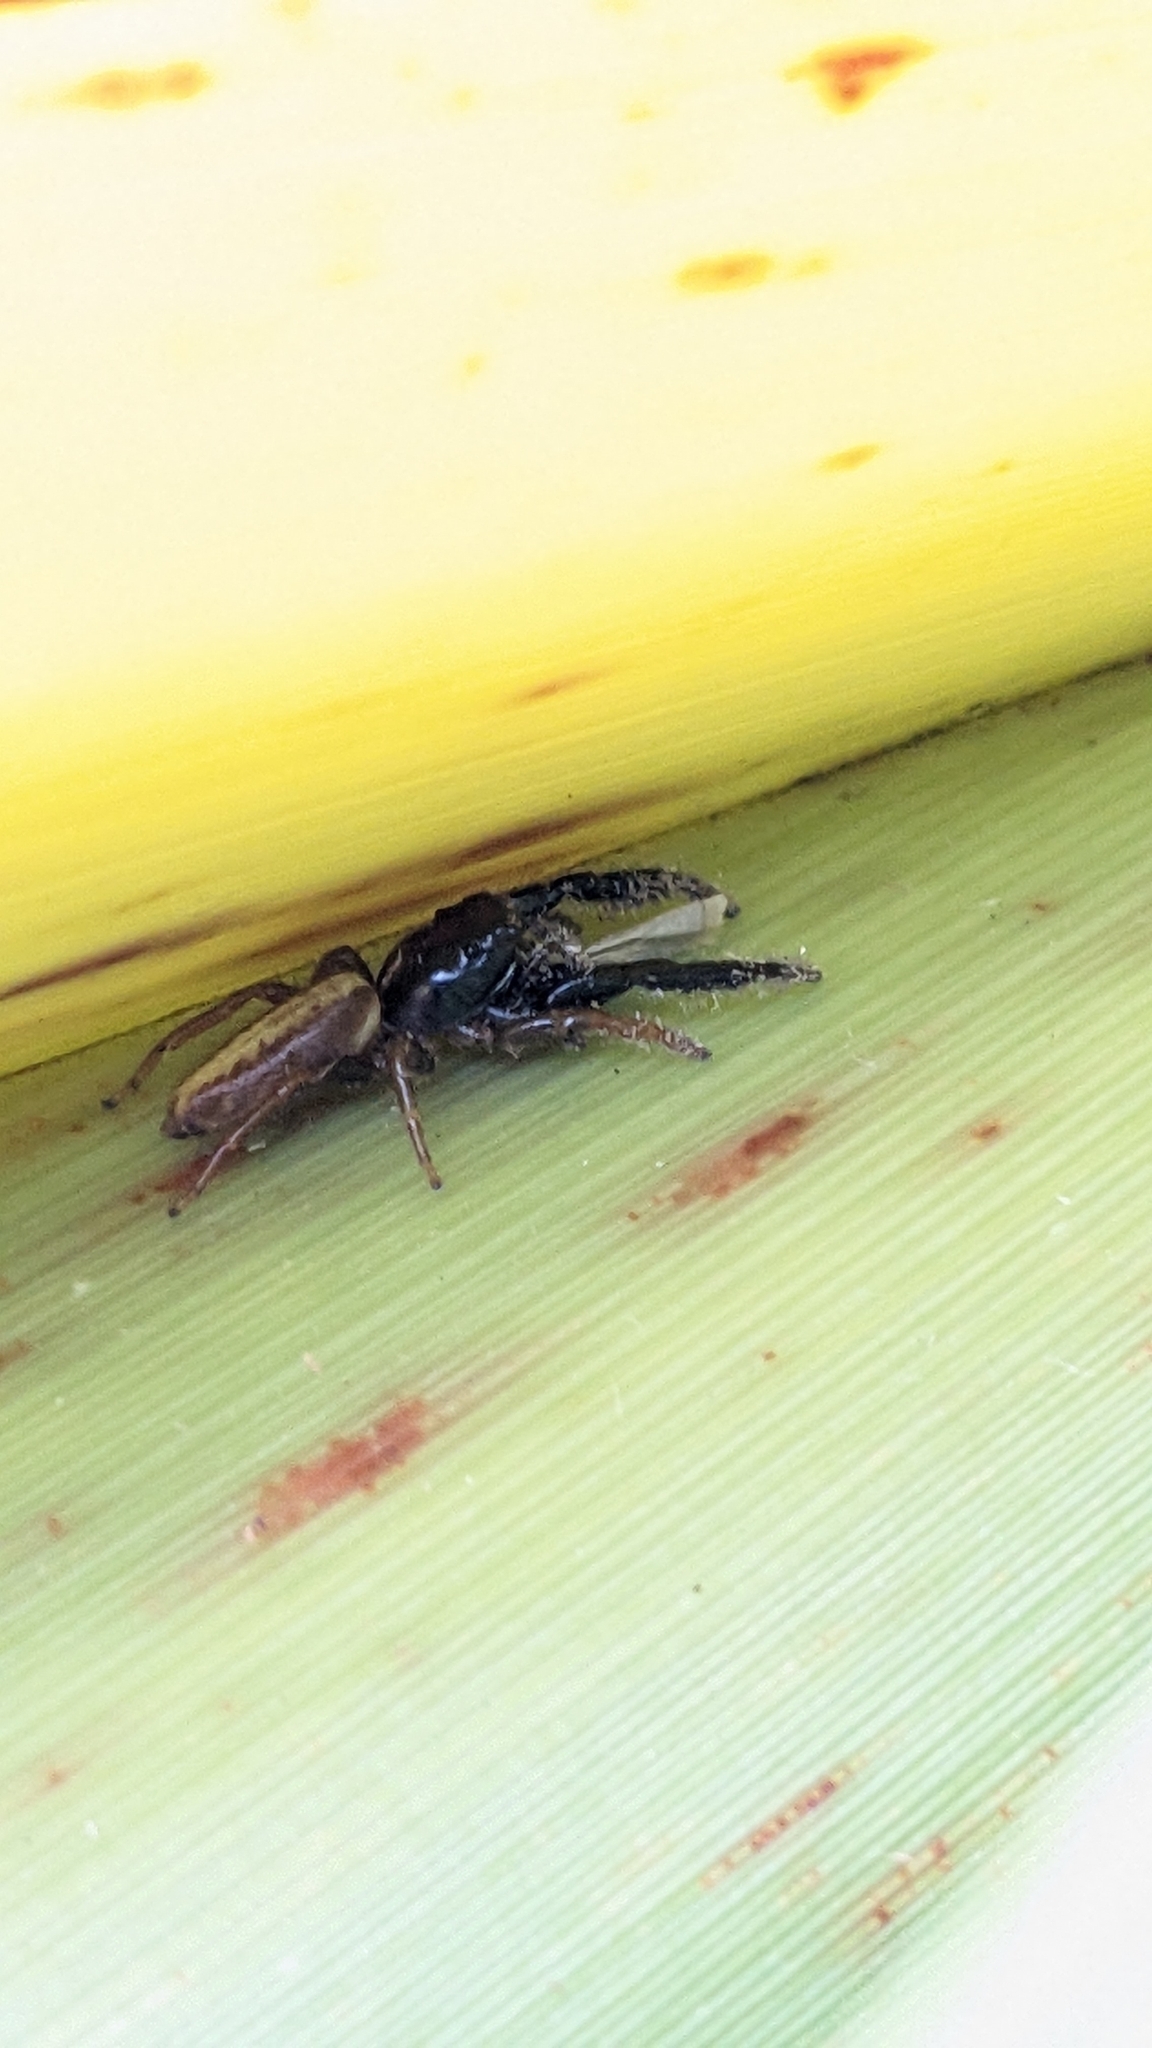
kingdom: Animalia
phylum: Arthropoda
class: Arachnida
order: Araneae
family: Salticidae
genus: Trite
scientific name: Trite planiceps
